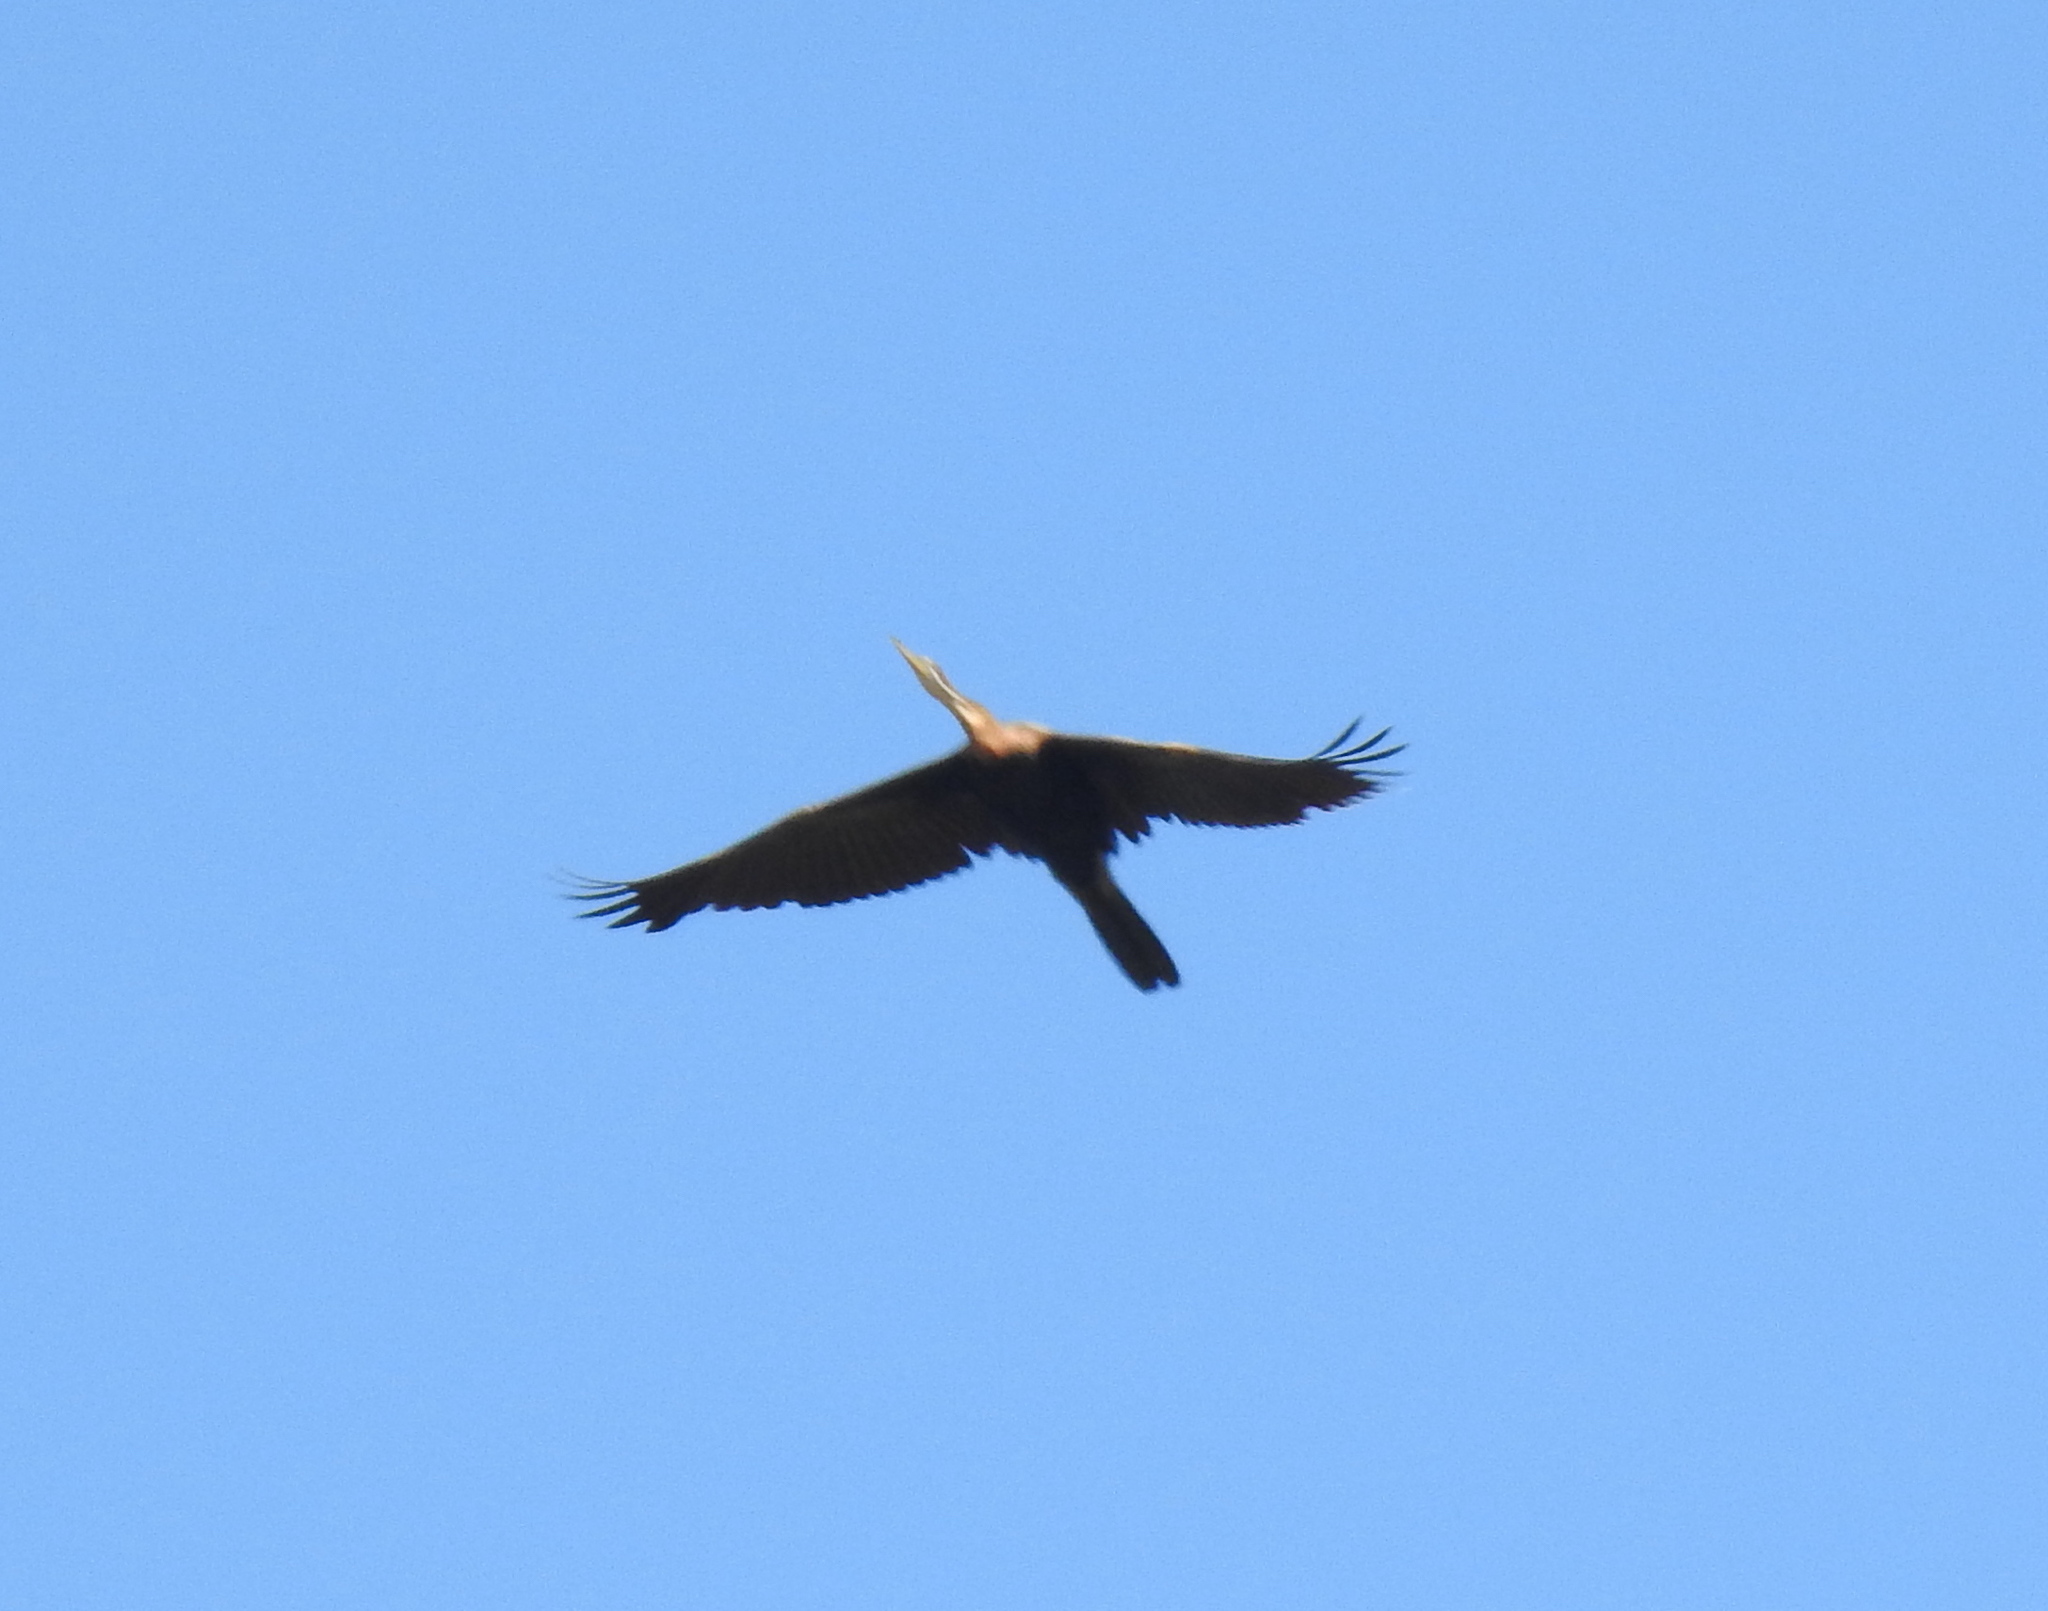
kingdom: Animalia
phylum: Chordata
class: Aves
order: Suliformes
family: Anhingidae
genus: Anhinga
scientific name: Anhinga rufa
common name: African darter
